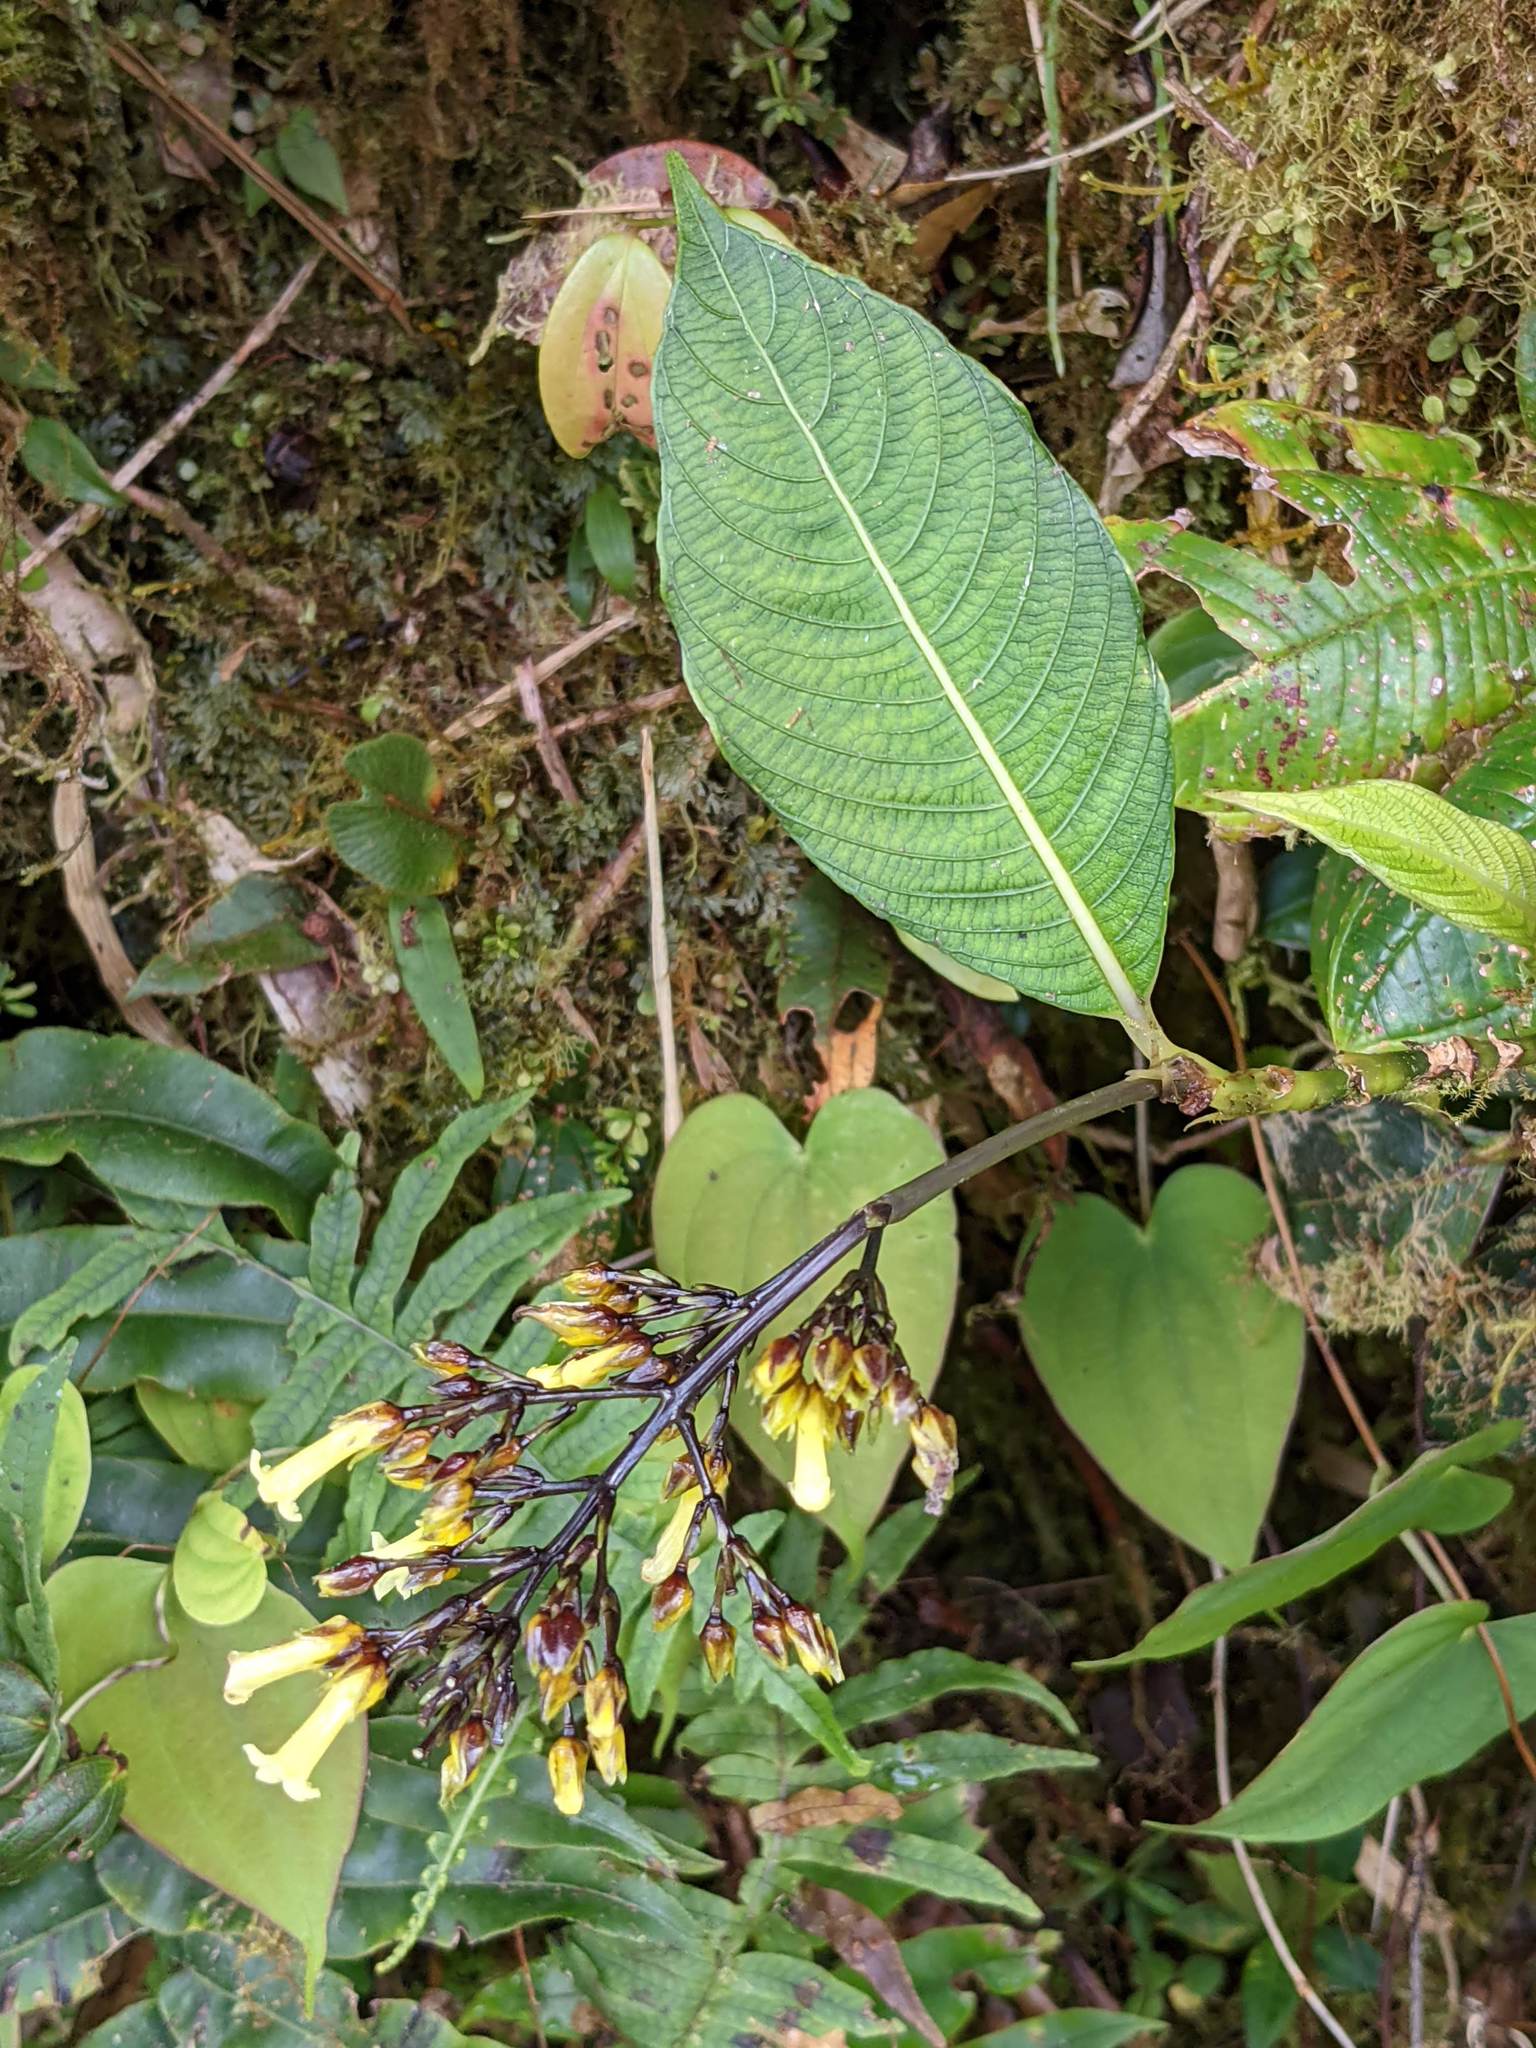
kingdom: Plantae
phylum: Tracheophyta
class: Magnoliopsida
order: Gentianales
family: Rubiaceae
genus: Palicourea
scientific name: Palicourea macrocalyx
